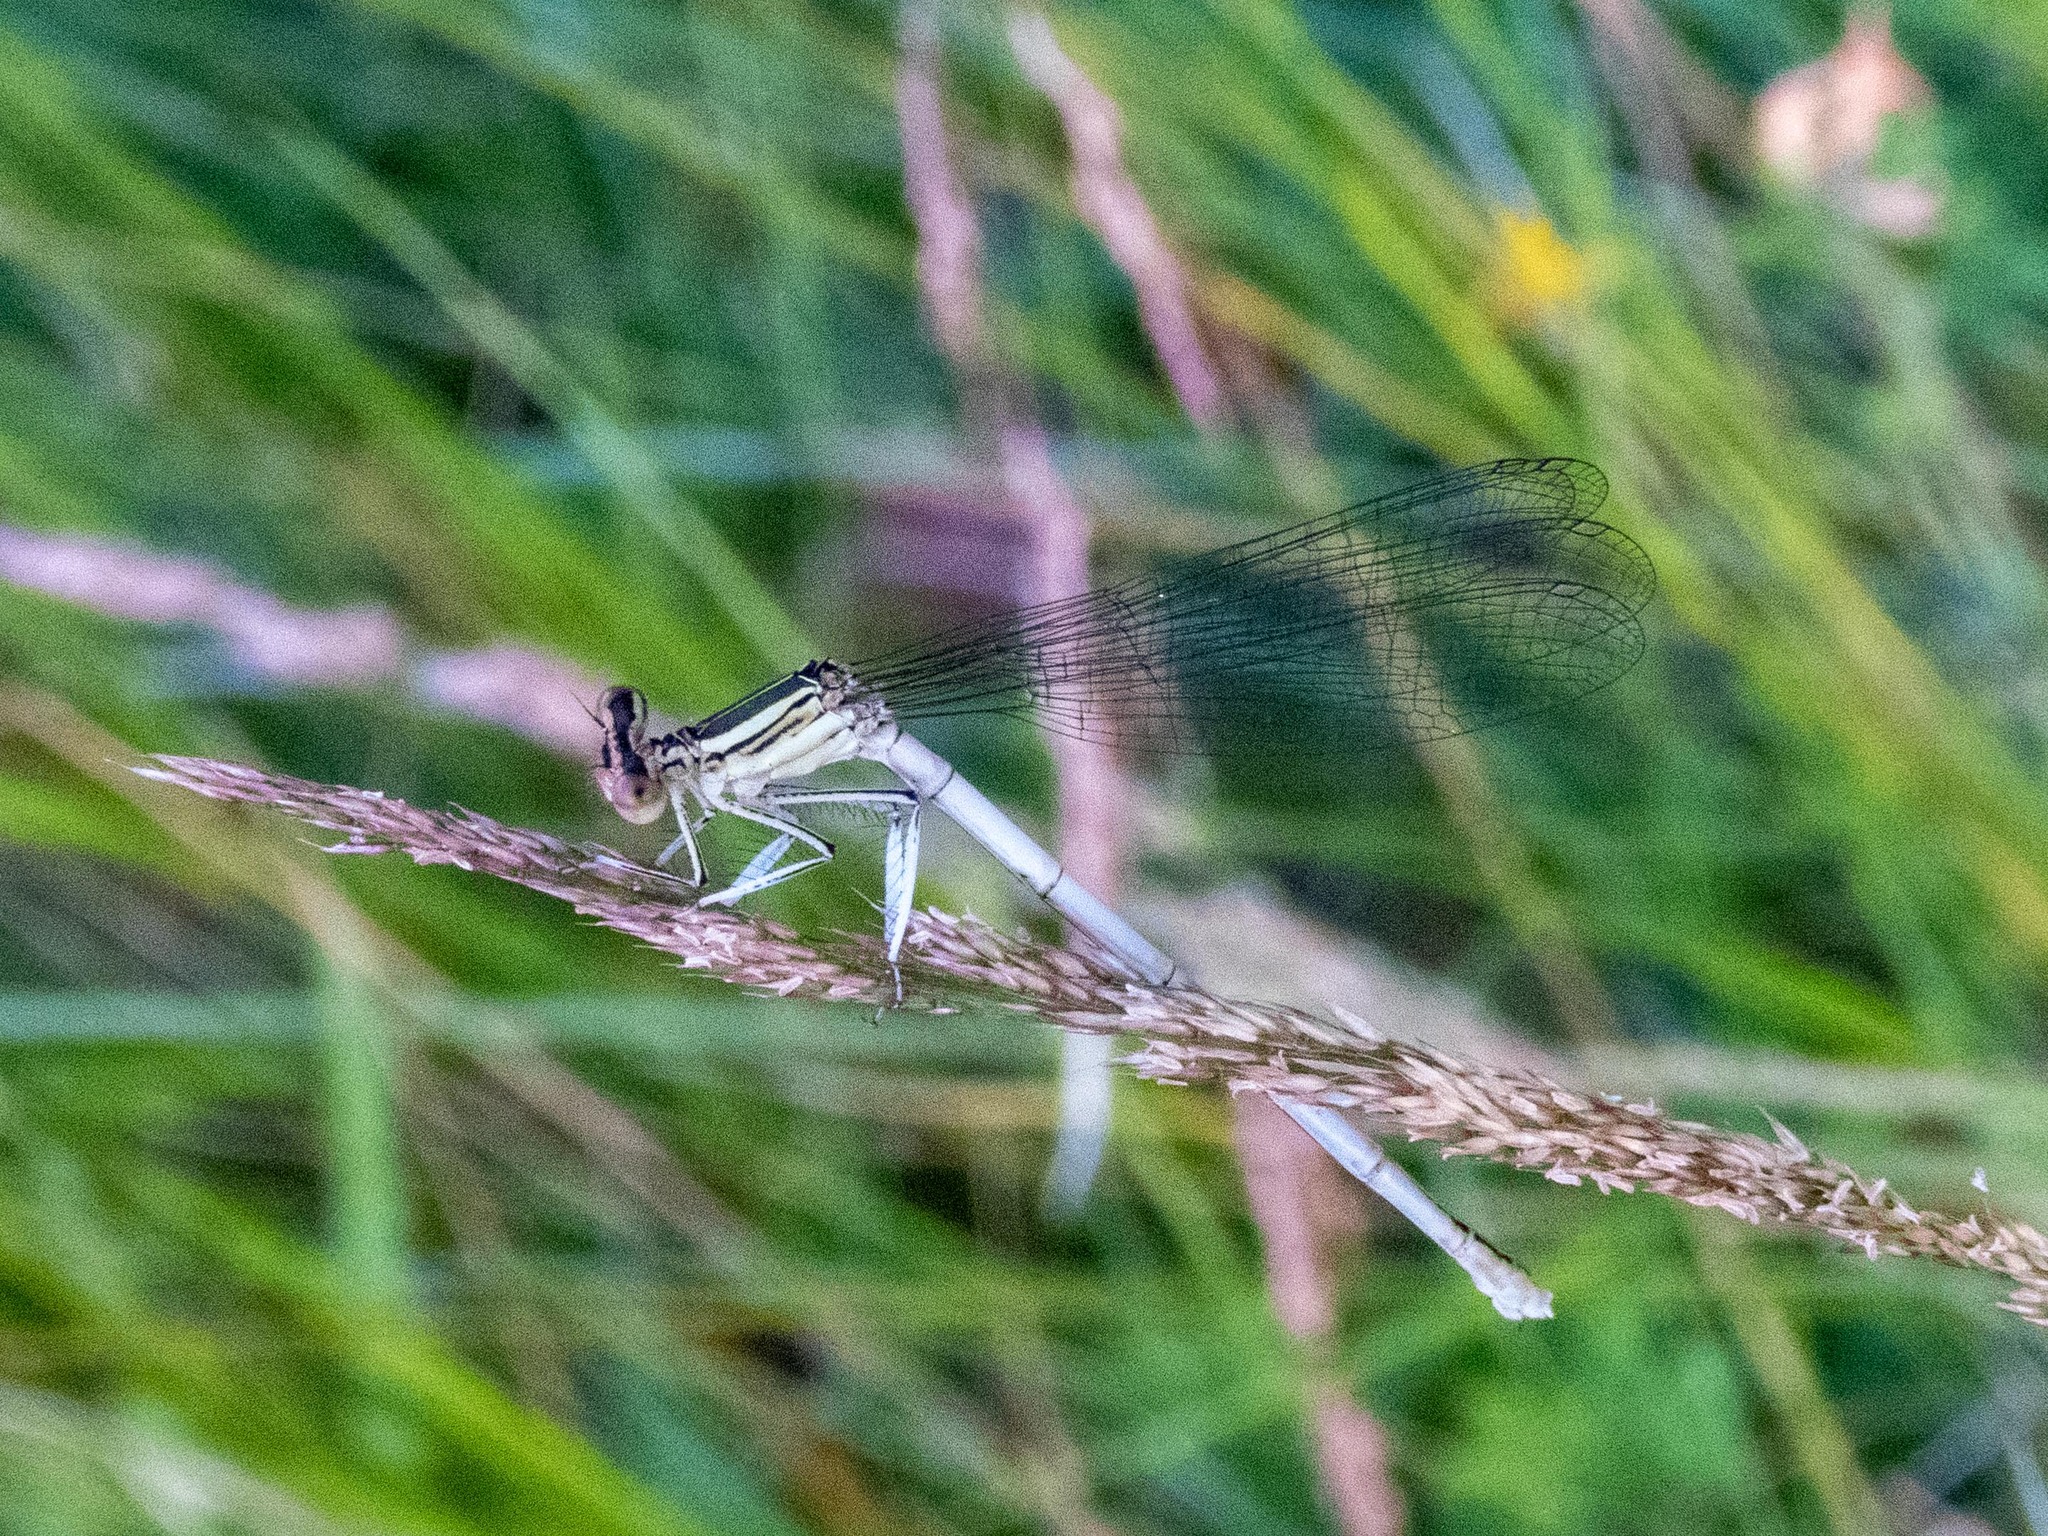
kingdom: Animalia
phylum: Arthropoda
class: Insecta
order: Odonata
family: Platycnemididae
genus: Platycnemis
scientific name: Platycnemis latipes
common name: White featherleg
